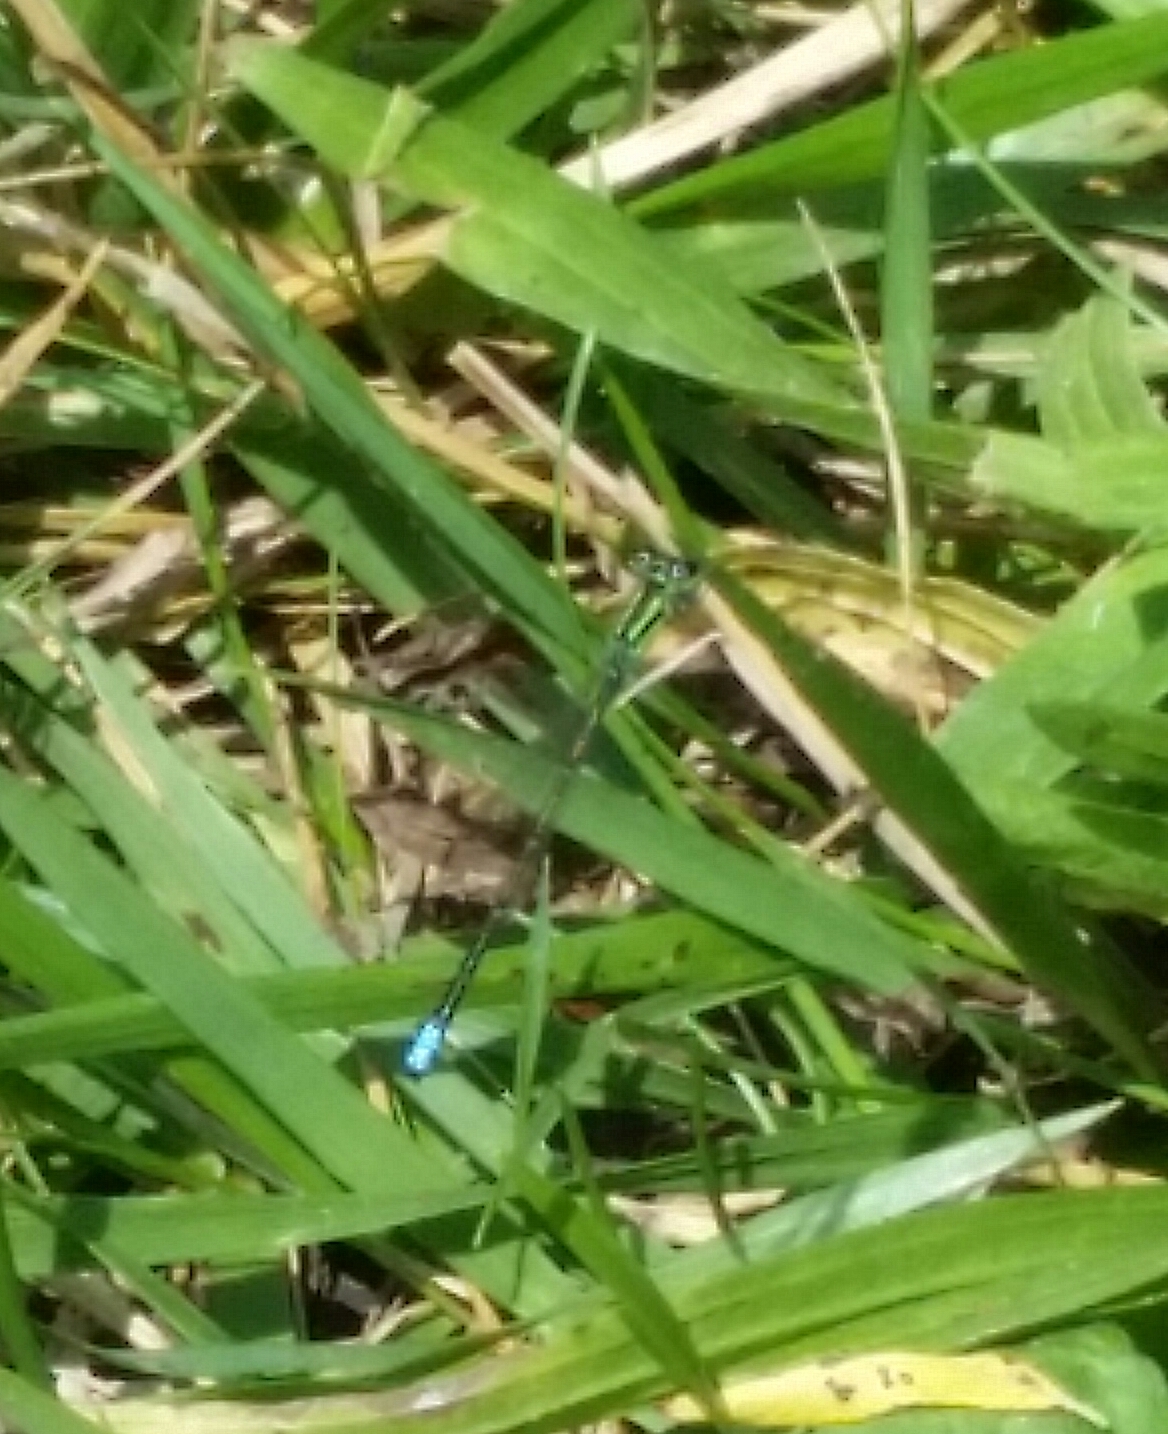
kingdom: Animalia
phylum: Arthropoda
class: Insecta
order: Odonata
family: Coenagrionidae
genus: Ischnura
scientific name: Ischnura verticalis
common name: Eastern forktail
